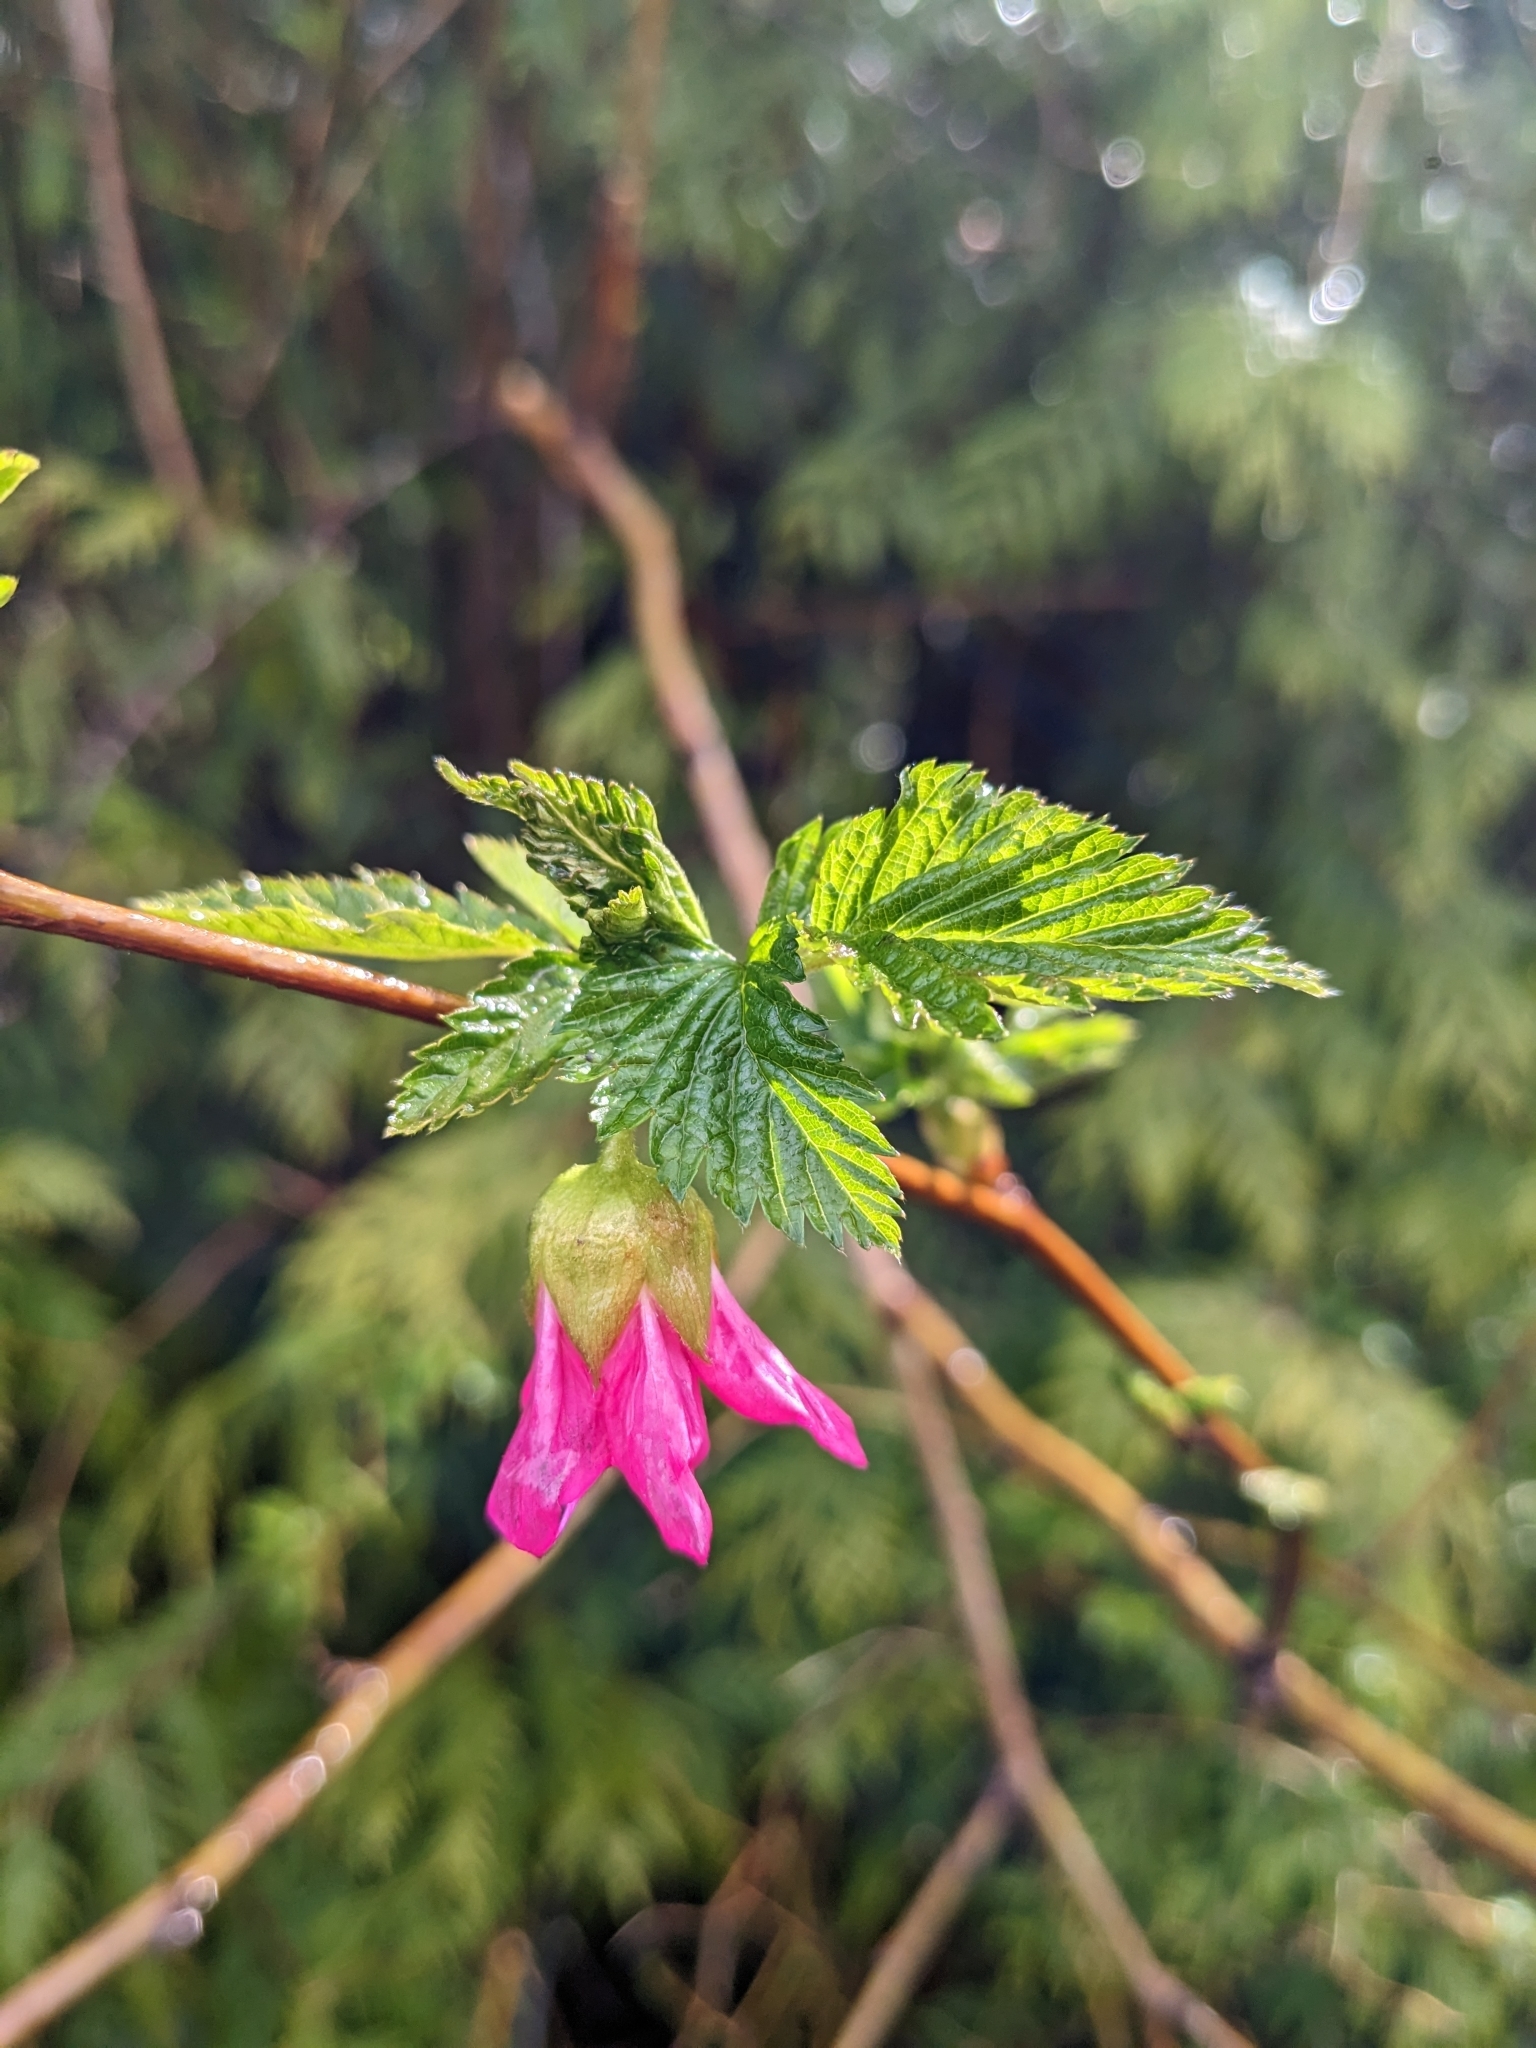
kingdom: Plantae
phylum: Tracheophyta
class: Magnoliopsida
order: Rosales
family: Rosaceae
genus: Rubus
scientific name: Rubus spectabilis
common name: Salmonberry
